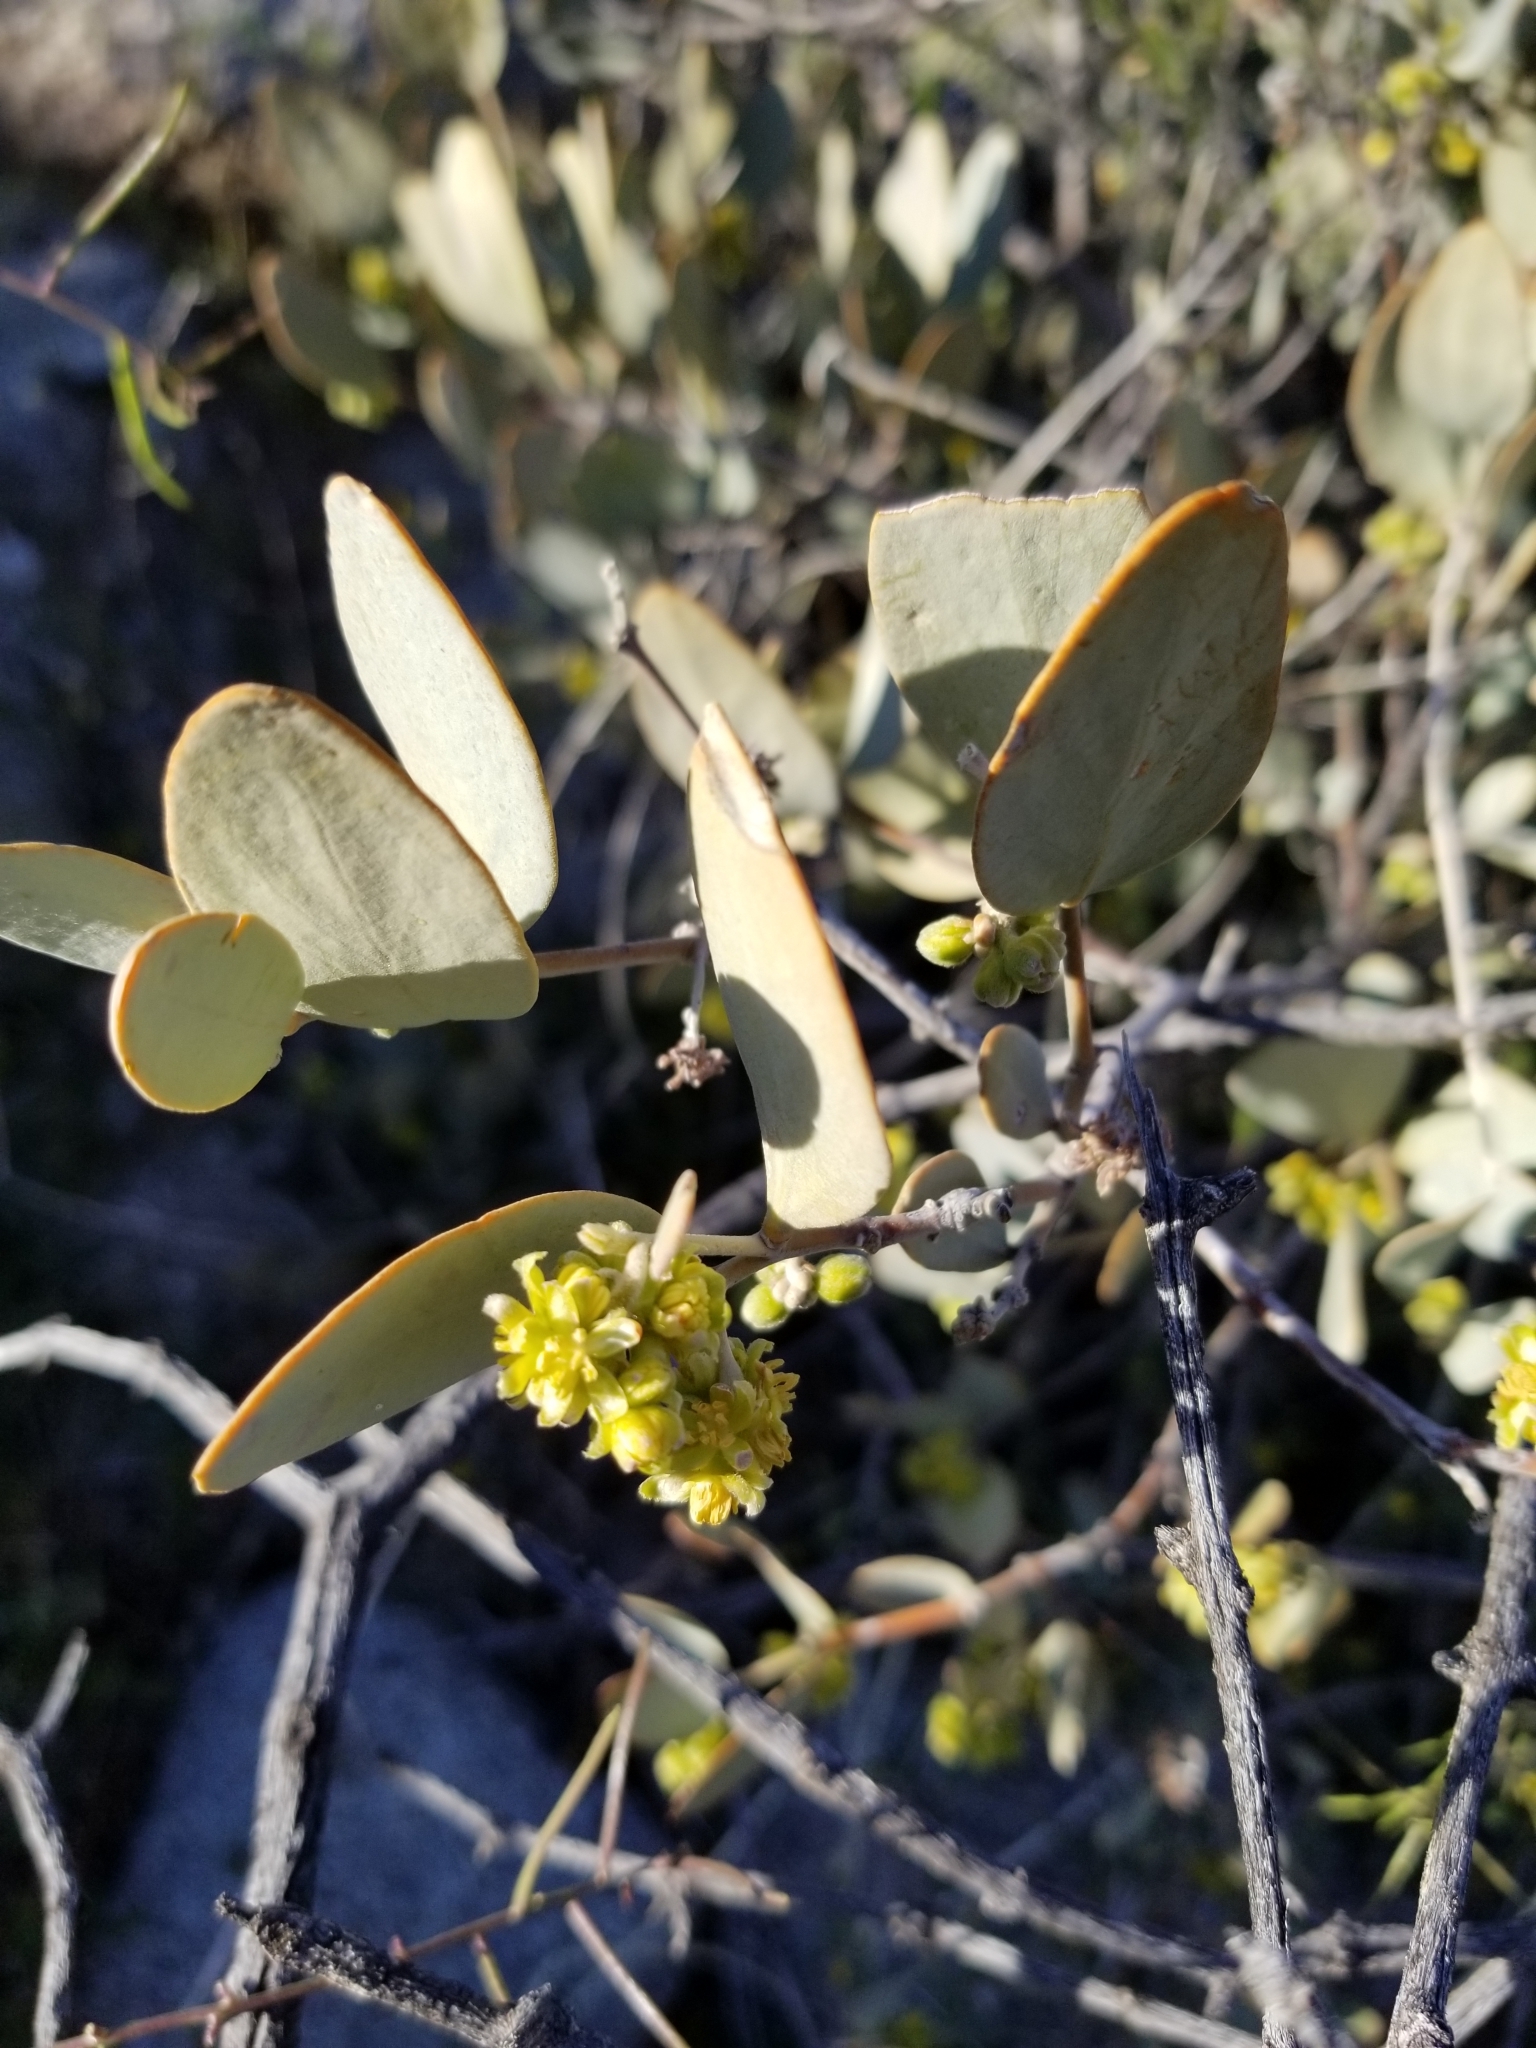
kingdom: Plantae
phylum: Tracheophyta
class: Magnoliopsida
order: Caryophyllales
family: Simmondsiaceae
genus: Simmondsia
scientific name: Simmondsia chinensis
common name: Jojoba
